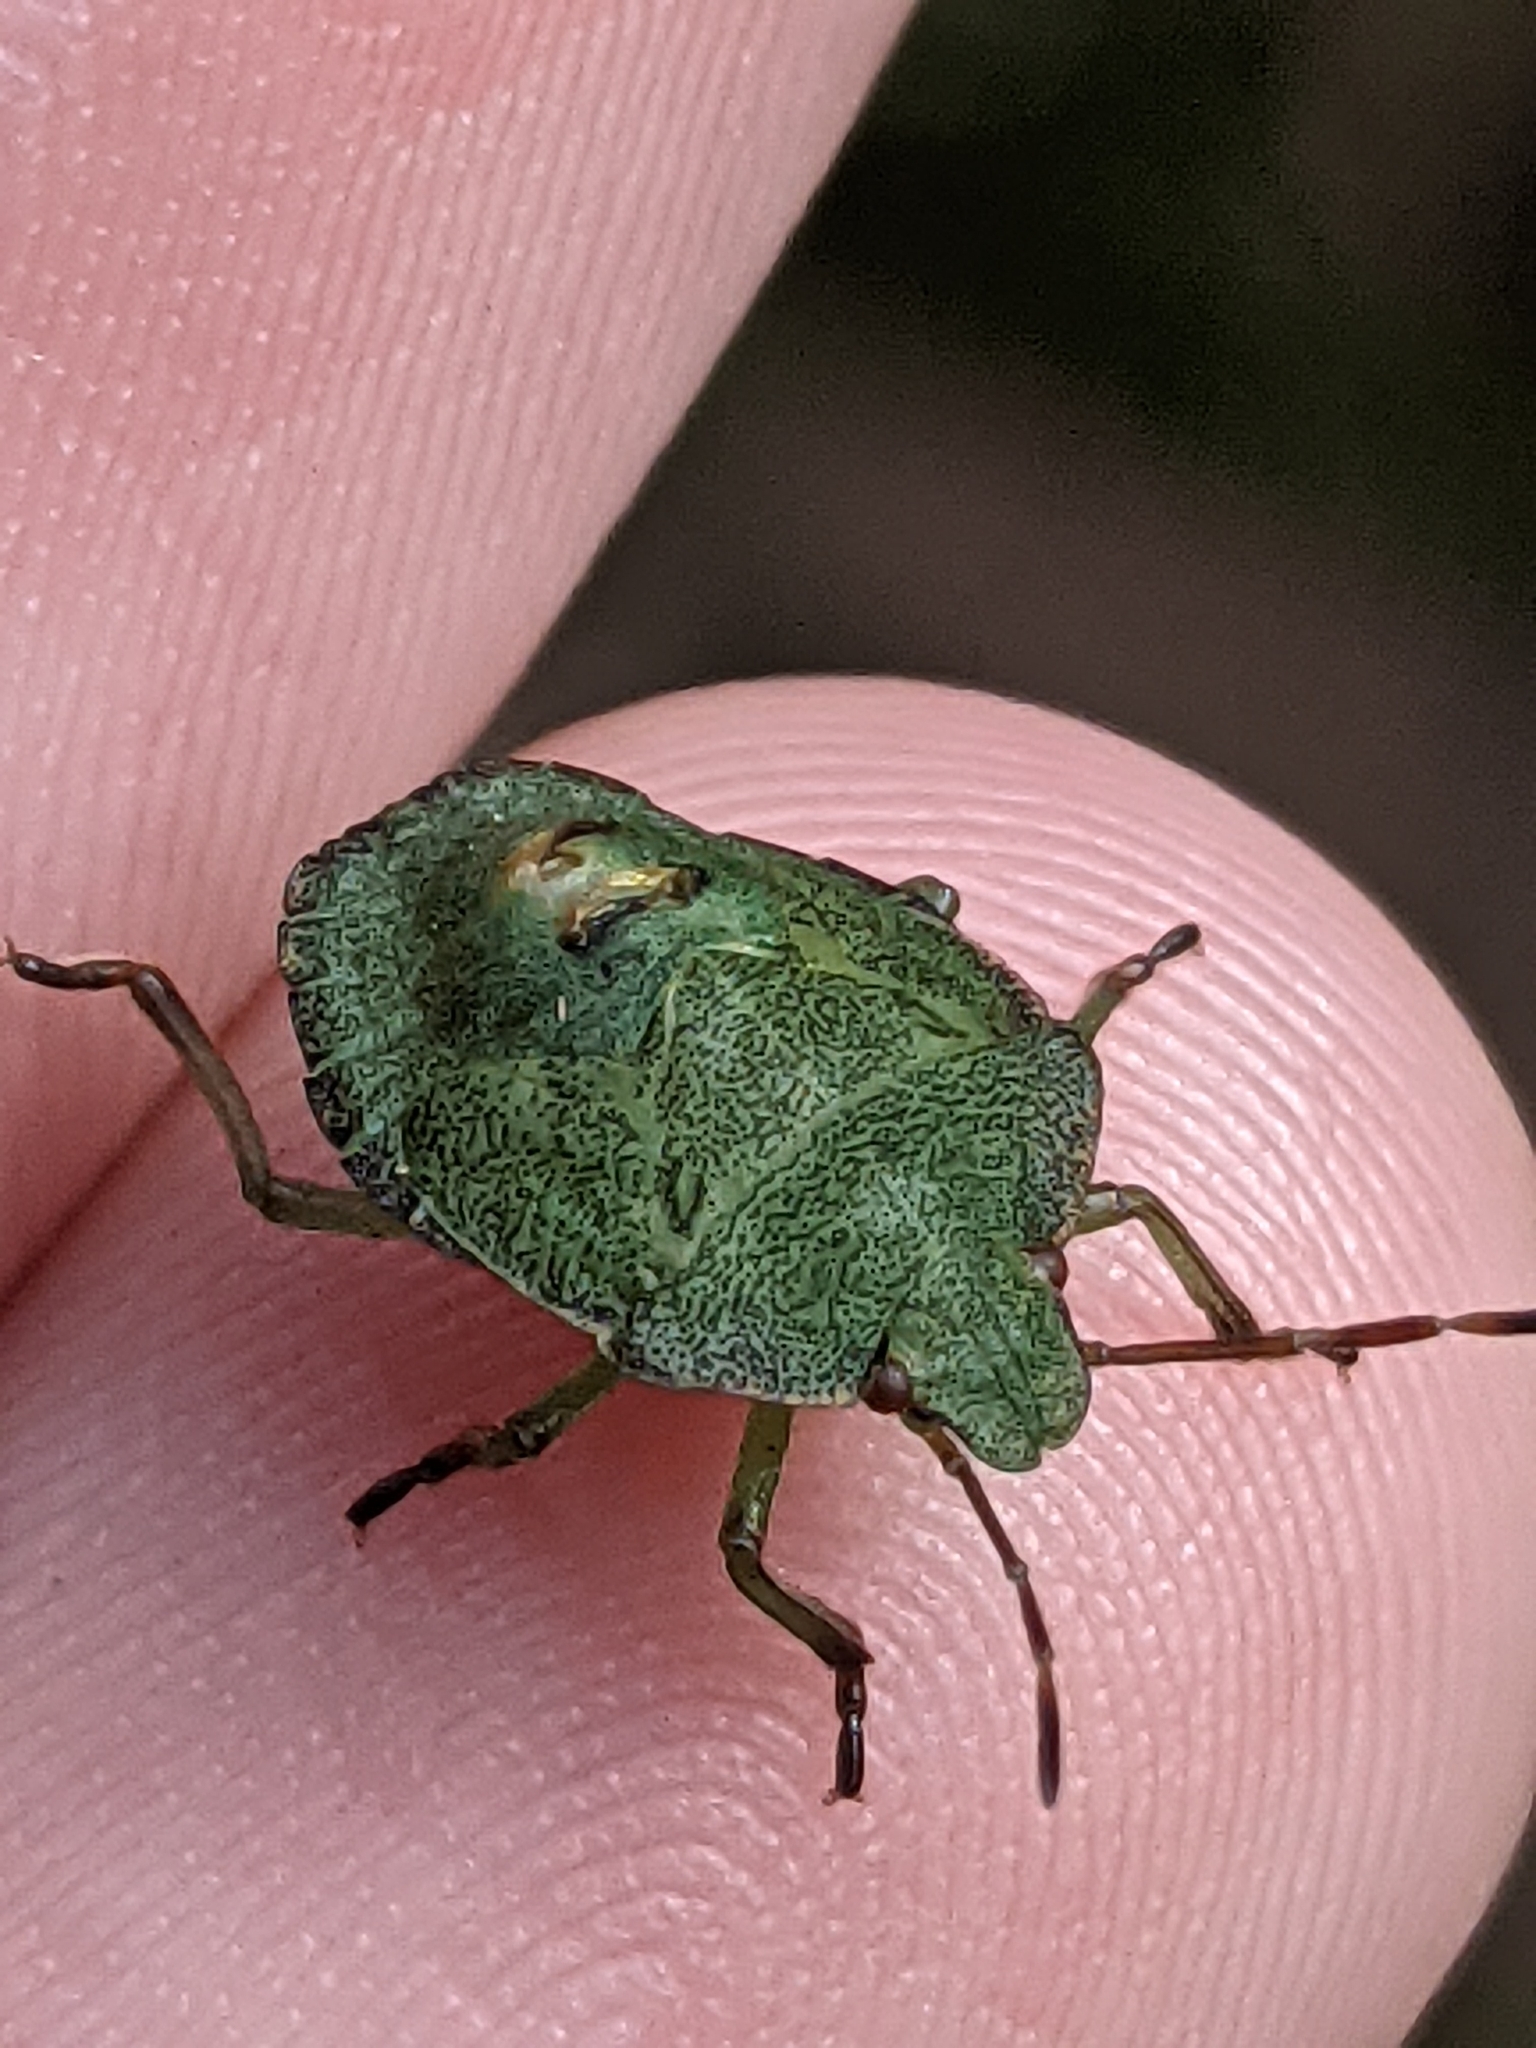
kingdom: Animalia
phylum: Arthropoda
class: Insecta
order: Hemiptera
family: Pentatomidae
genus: Palomena
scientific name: Palomena prasina
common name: Green shieldbug
